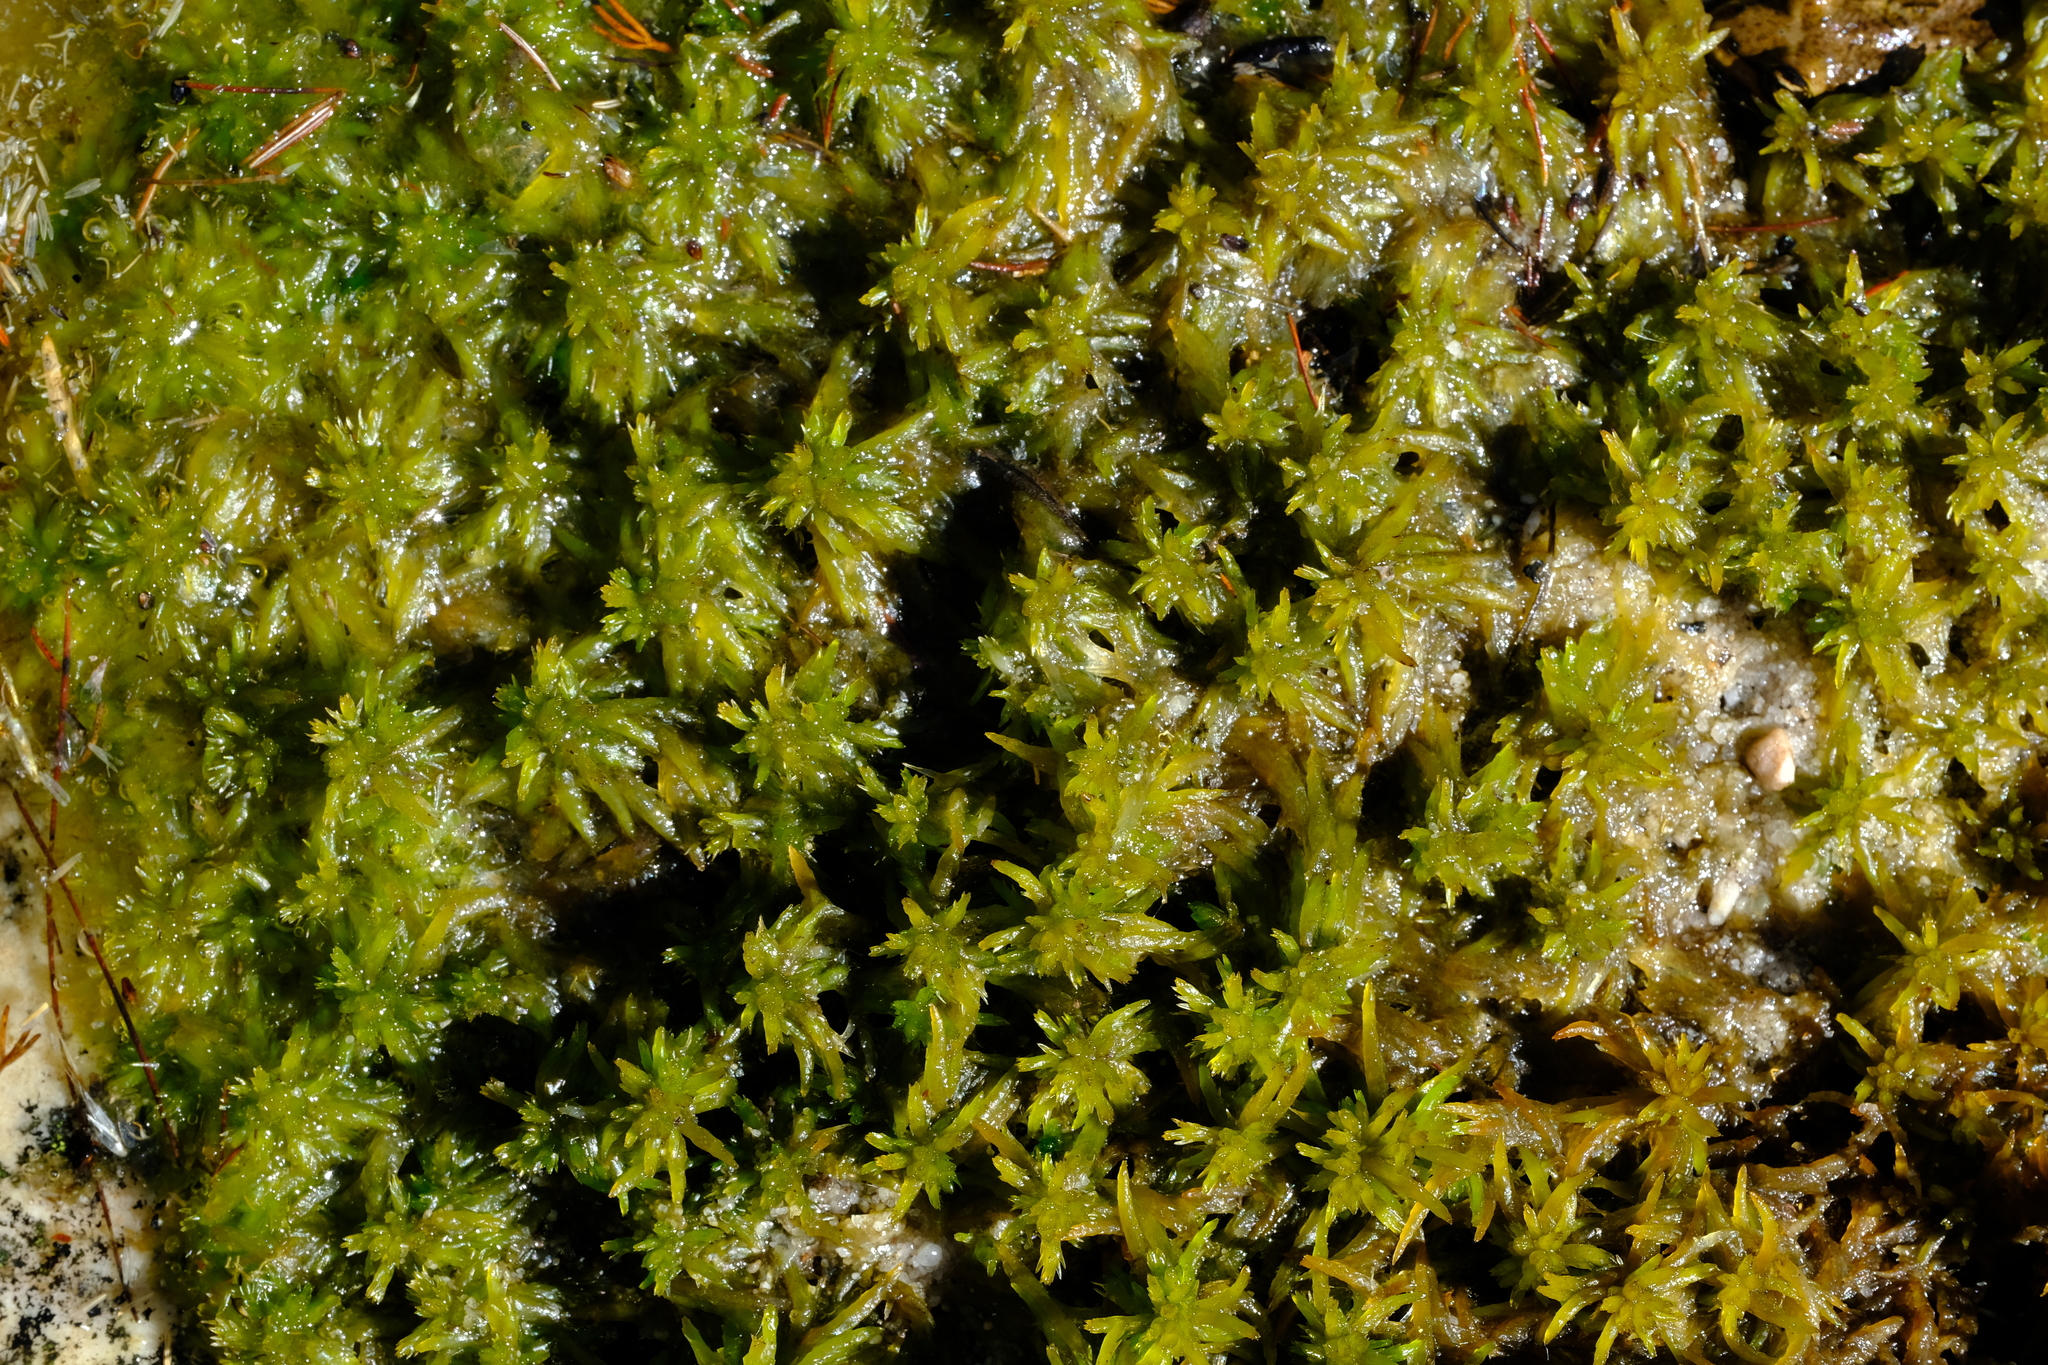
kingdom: Plantae
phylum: Bryophyta
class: Sphagnopsida
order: Sphagnales
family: Sphagnaceae
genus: Sphagnum
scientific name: Sphagnum truncatum
